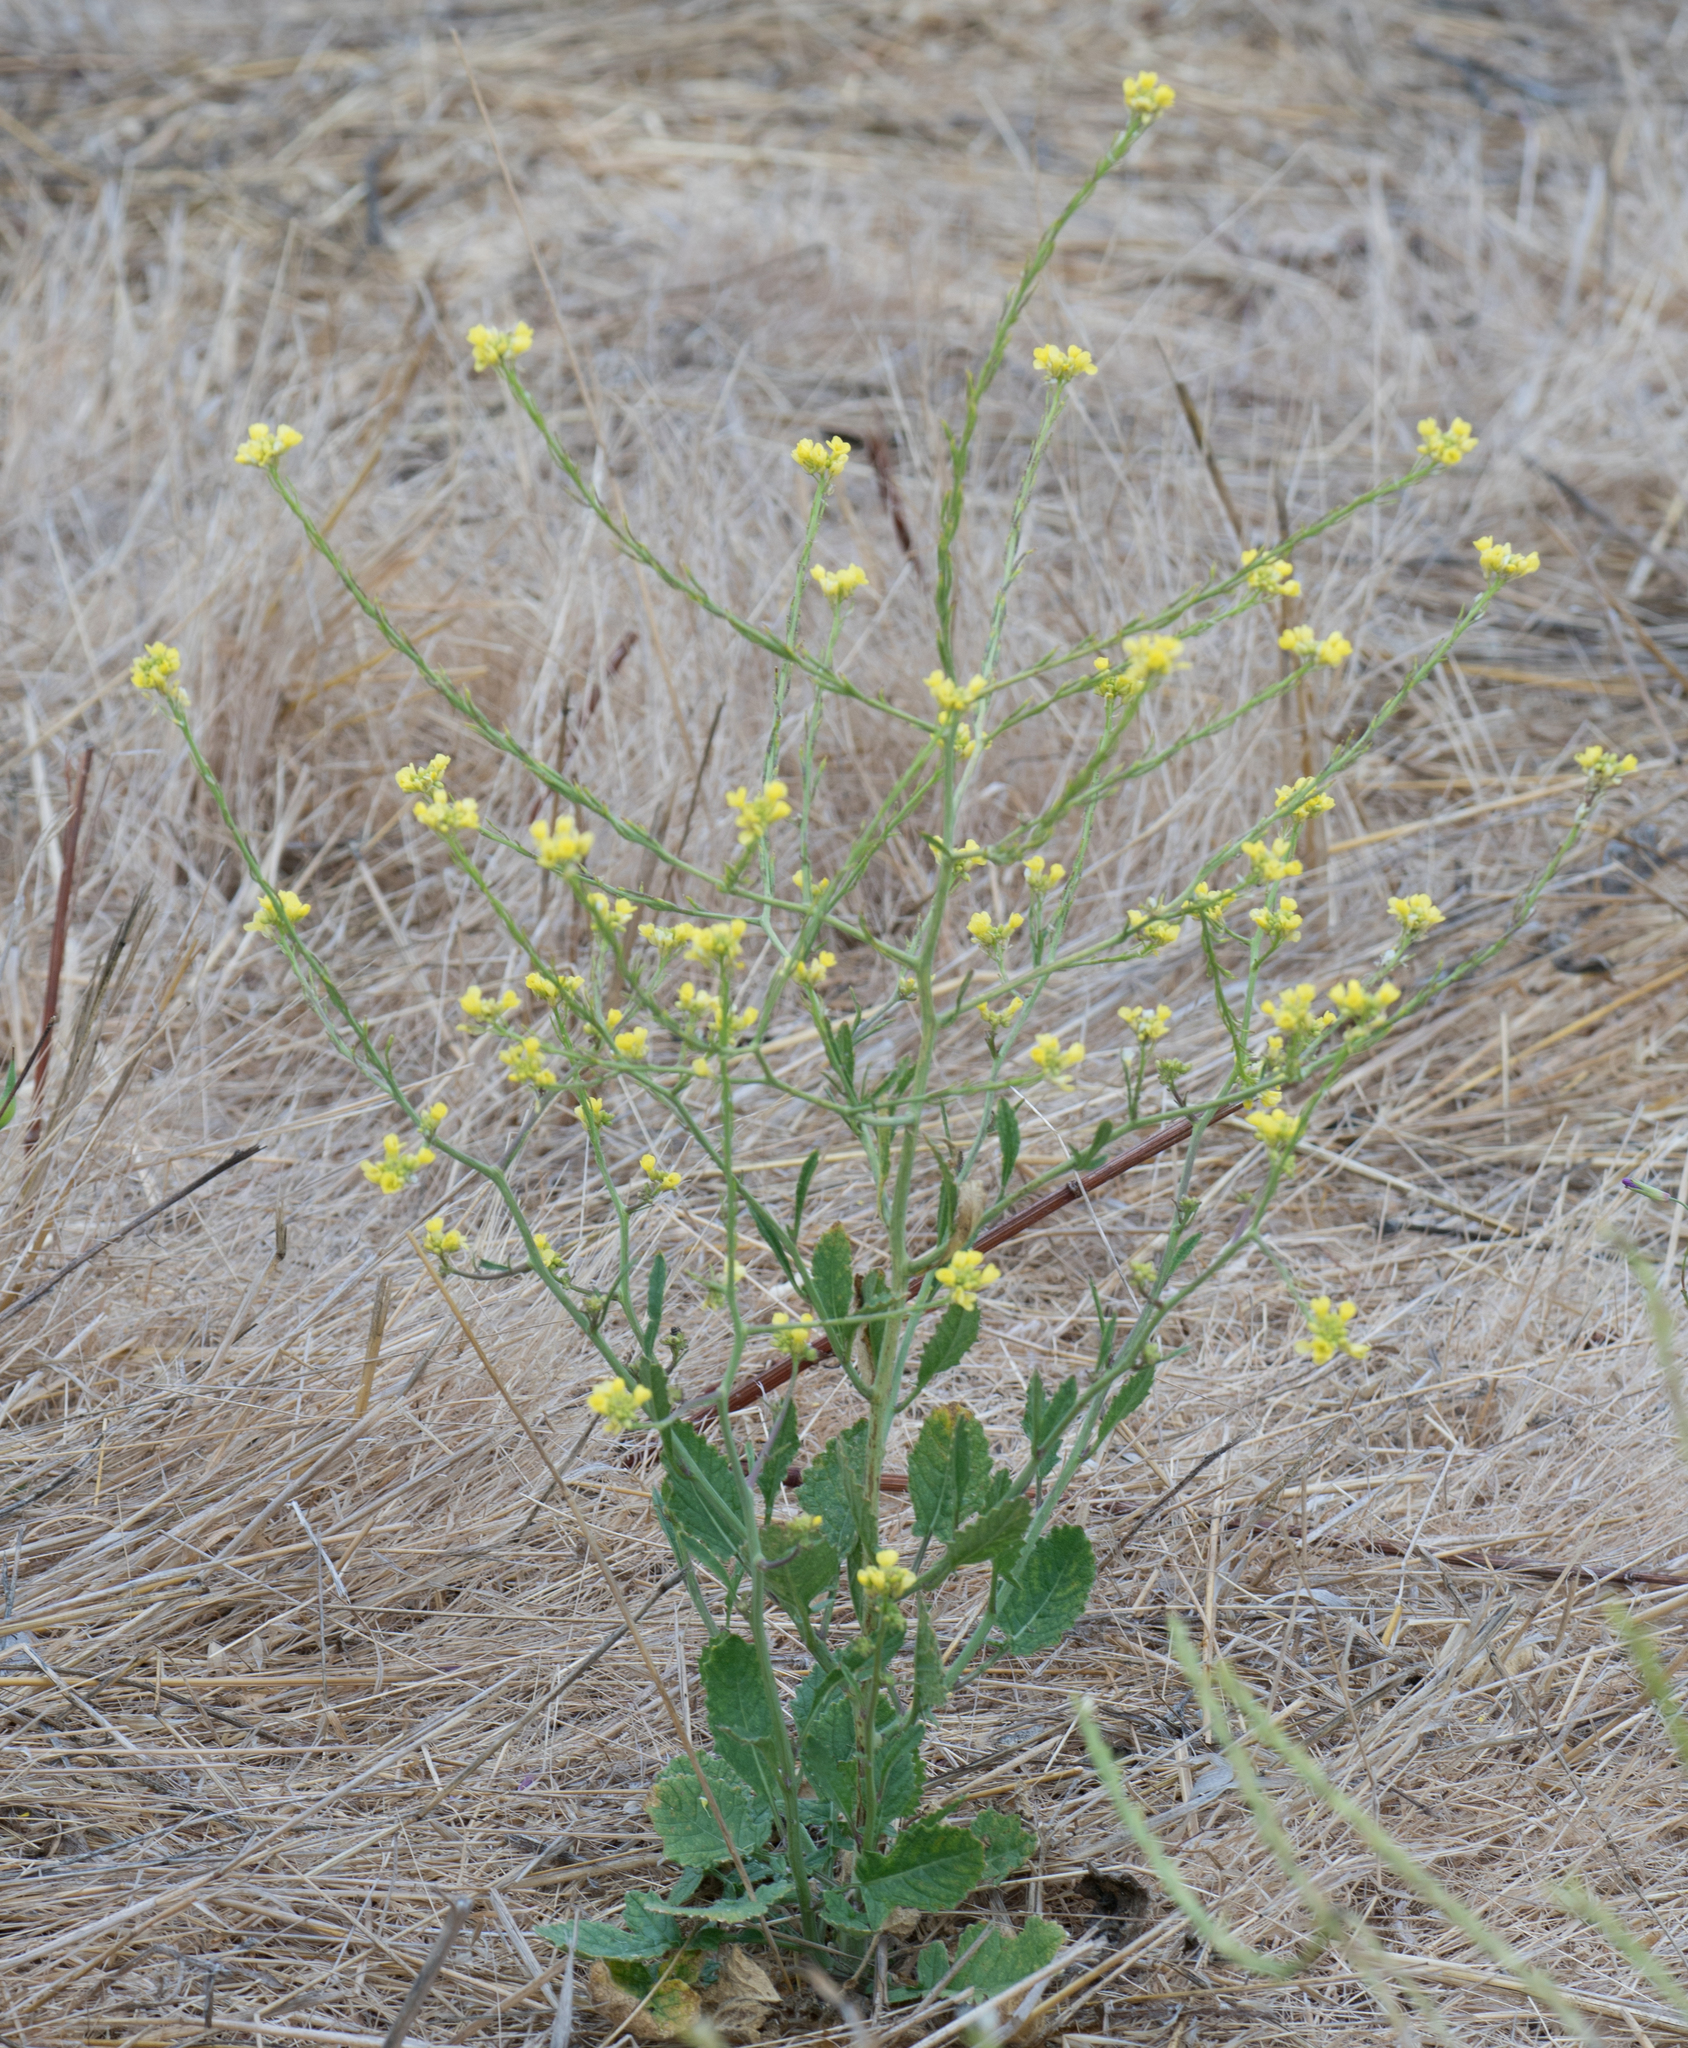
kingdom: Plantae
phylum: Tracheophyta
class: Magnoliopsida
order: Brassicales
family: Brassicaceae
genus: Hirschfeldia
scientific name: Hirschfeldia incana
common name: Hoary mustard
